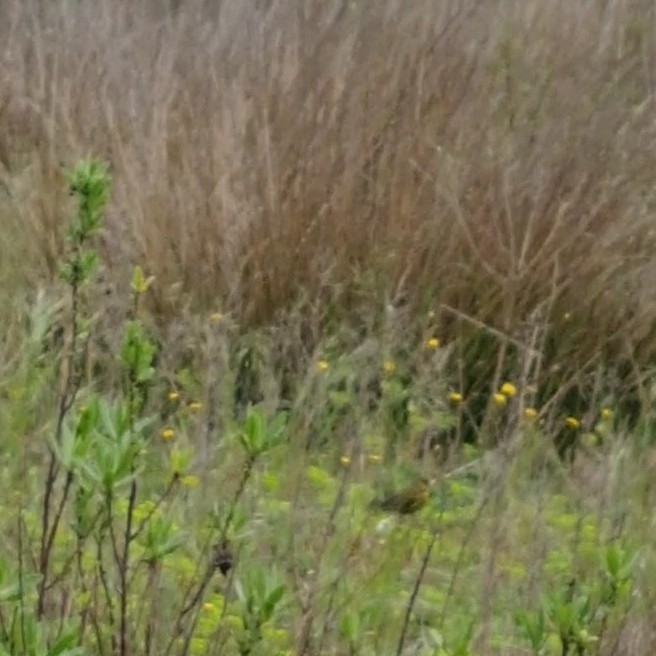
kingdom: Plantae
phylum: Tracheophyta
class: Liliopsida
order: Poales
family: Poaceae
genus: Chloris
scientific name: Chloris chloris
